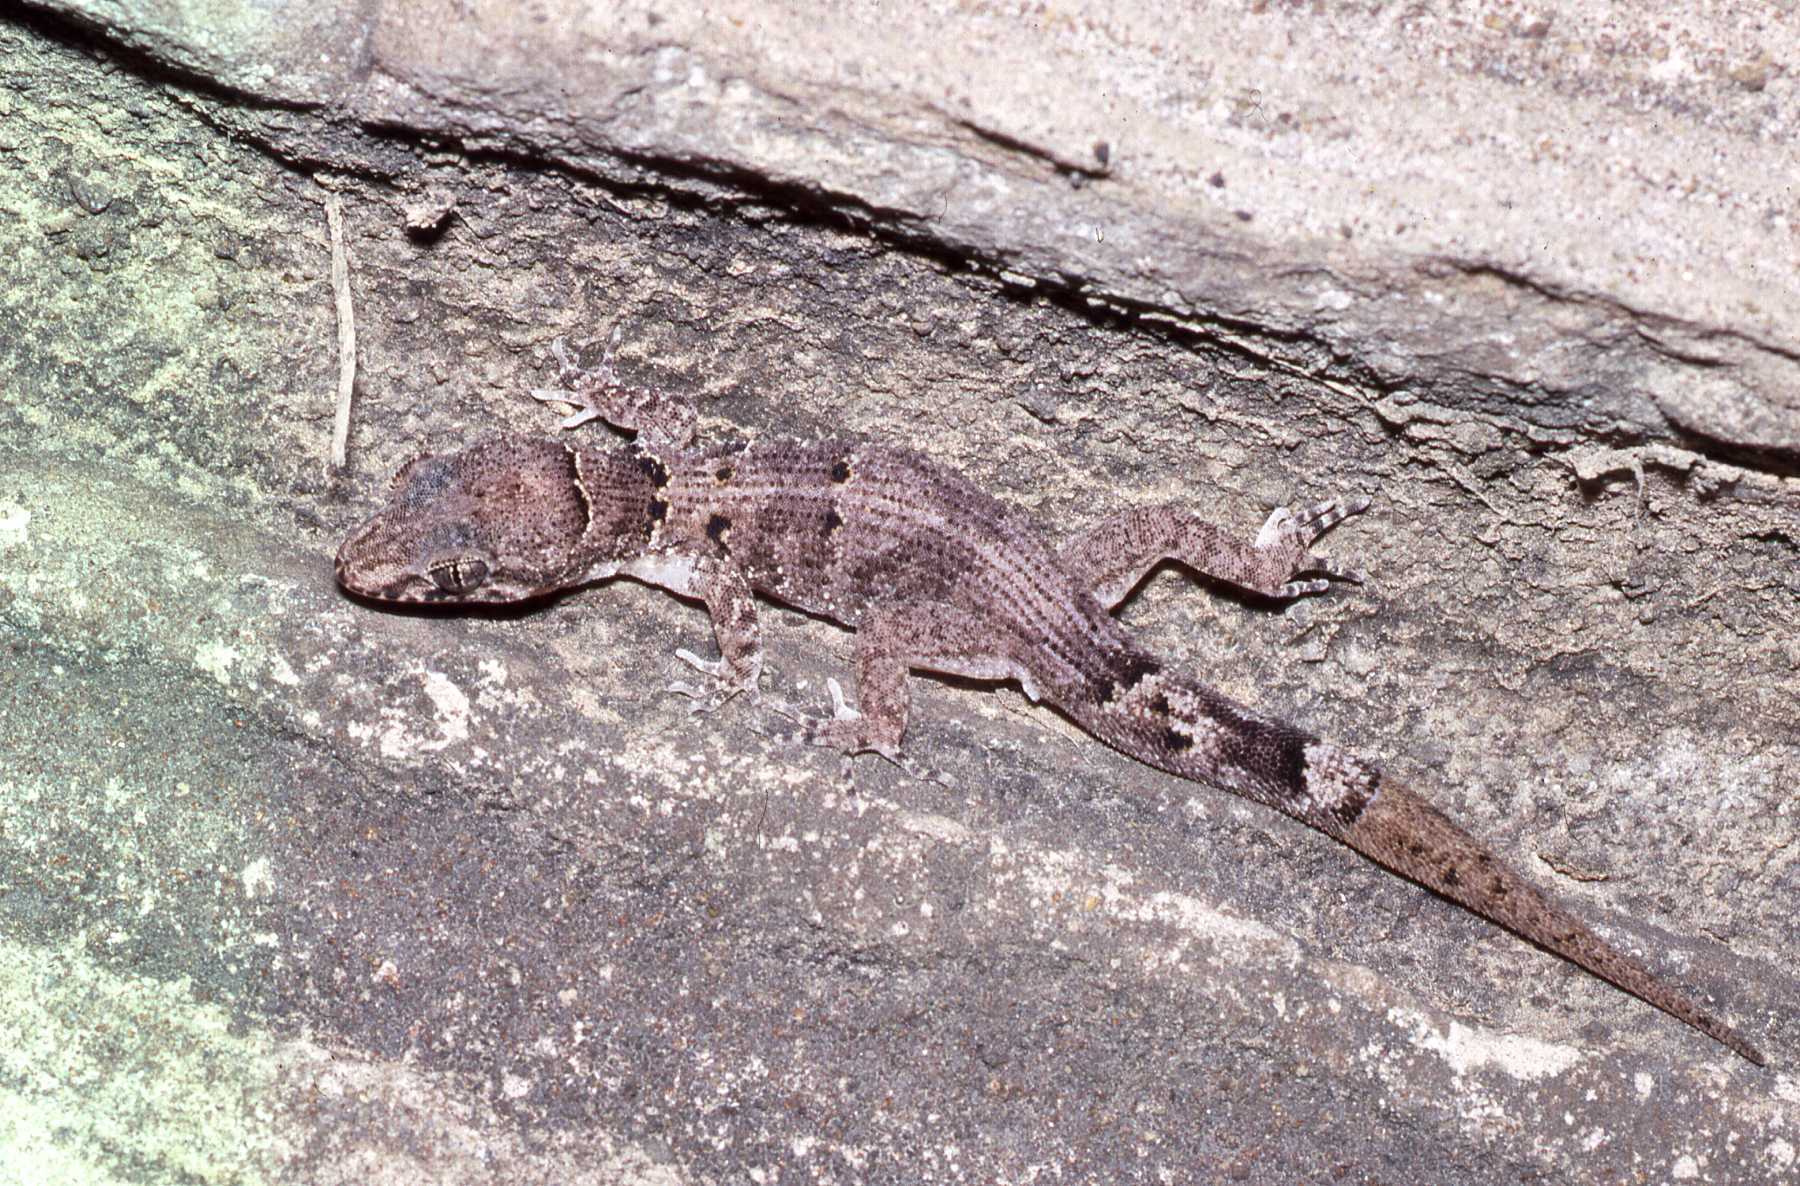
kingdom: Animalia
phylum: Chordata
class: Squamata
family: Gekkonidae
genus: Nactus
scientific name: Nactus serpensinsula
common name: Serpent island night gecko
